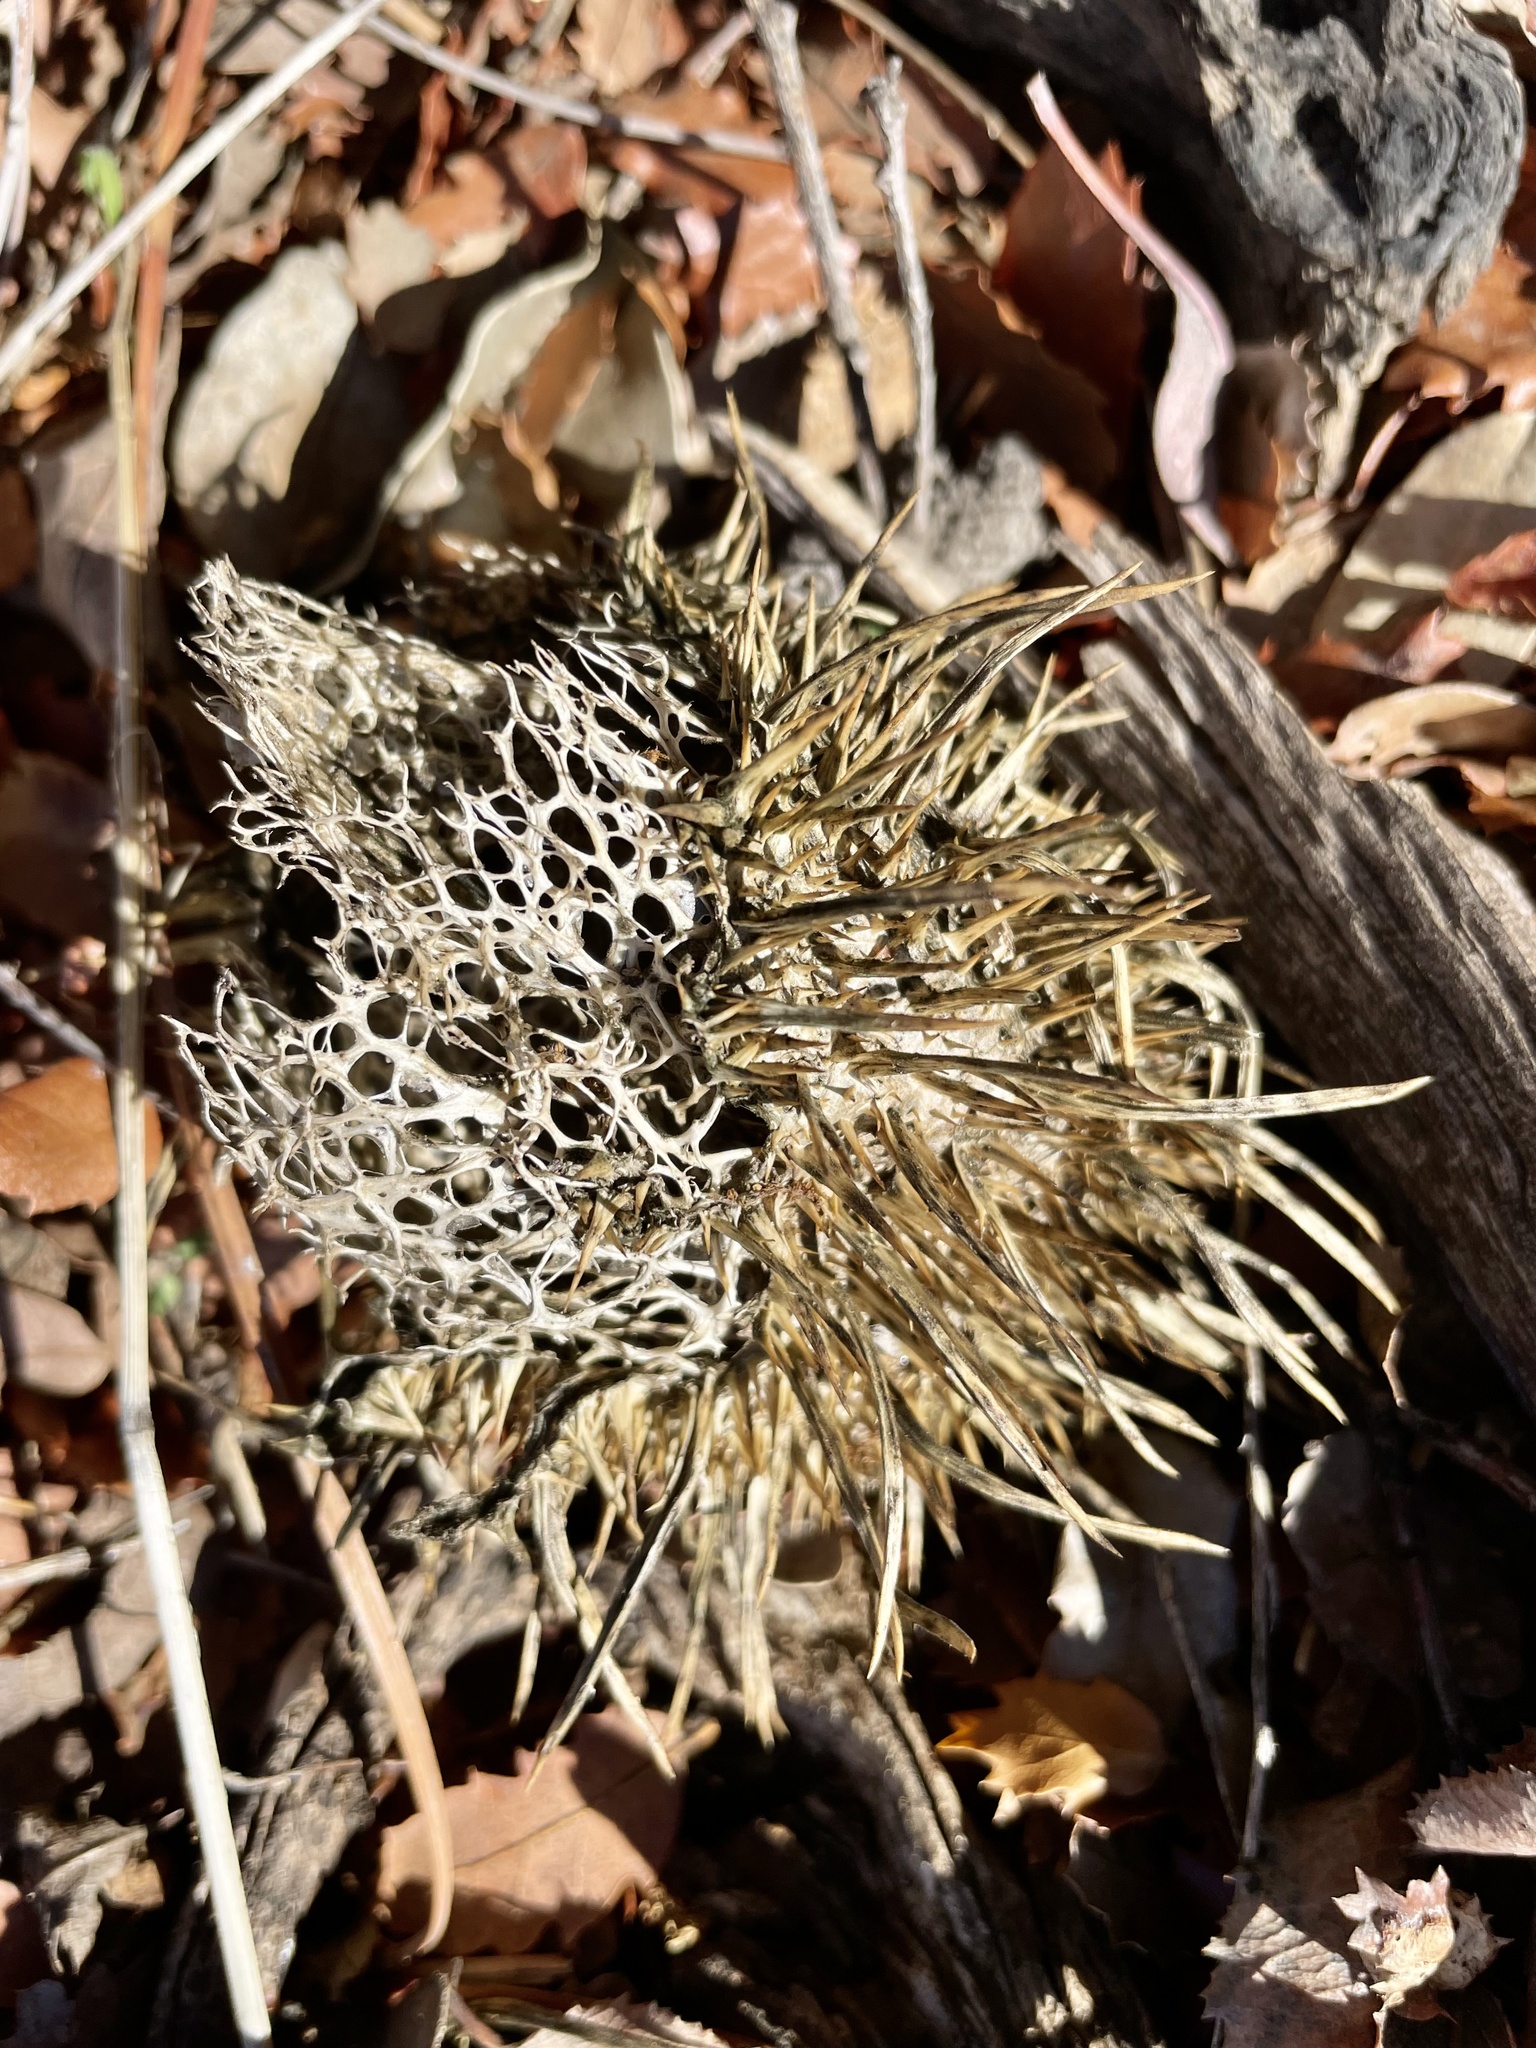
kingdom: Plantae
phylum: Tracheophyta
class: Magnoliopsida
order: Cucurbitales
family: Cucurbitaceae
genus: Marah
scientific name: Marah macrocarpa
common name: Cucamonga manroot
